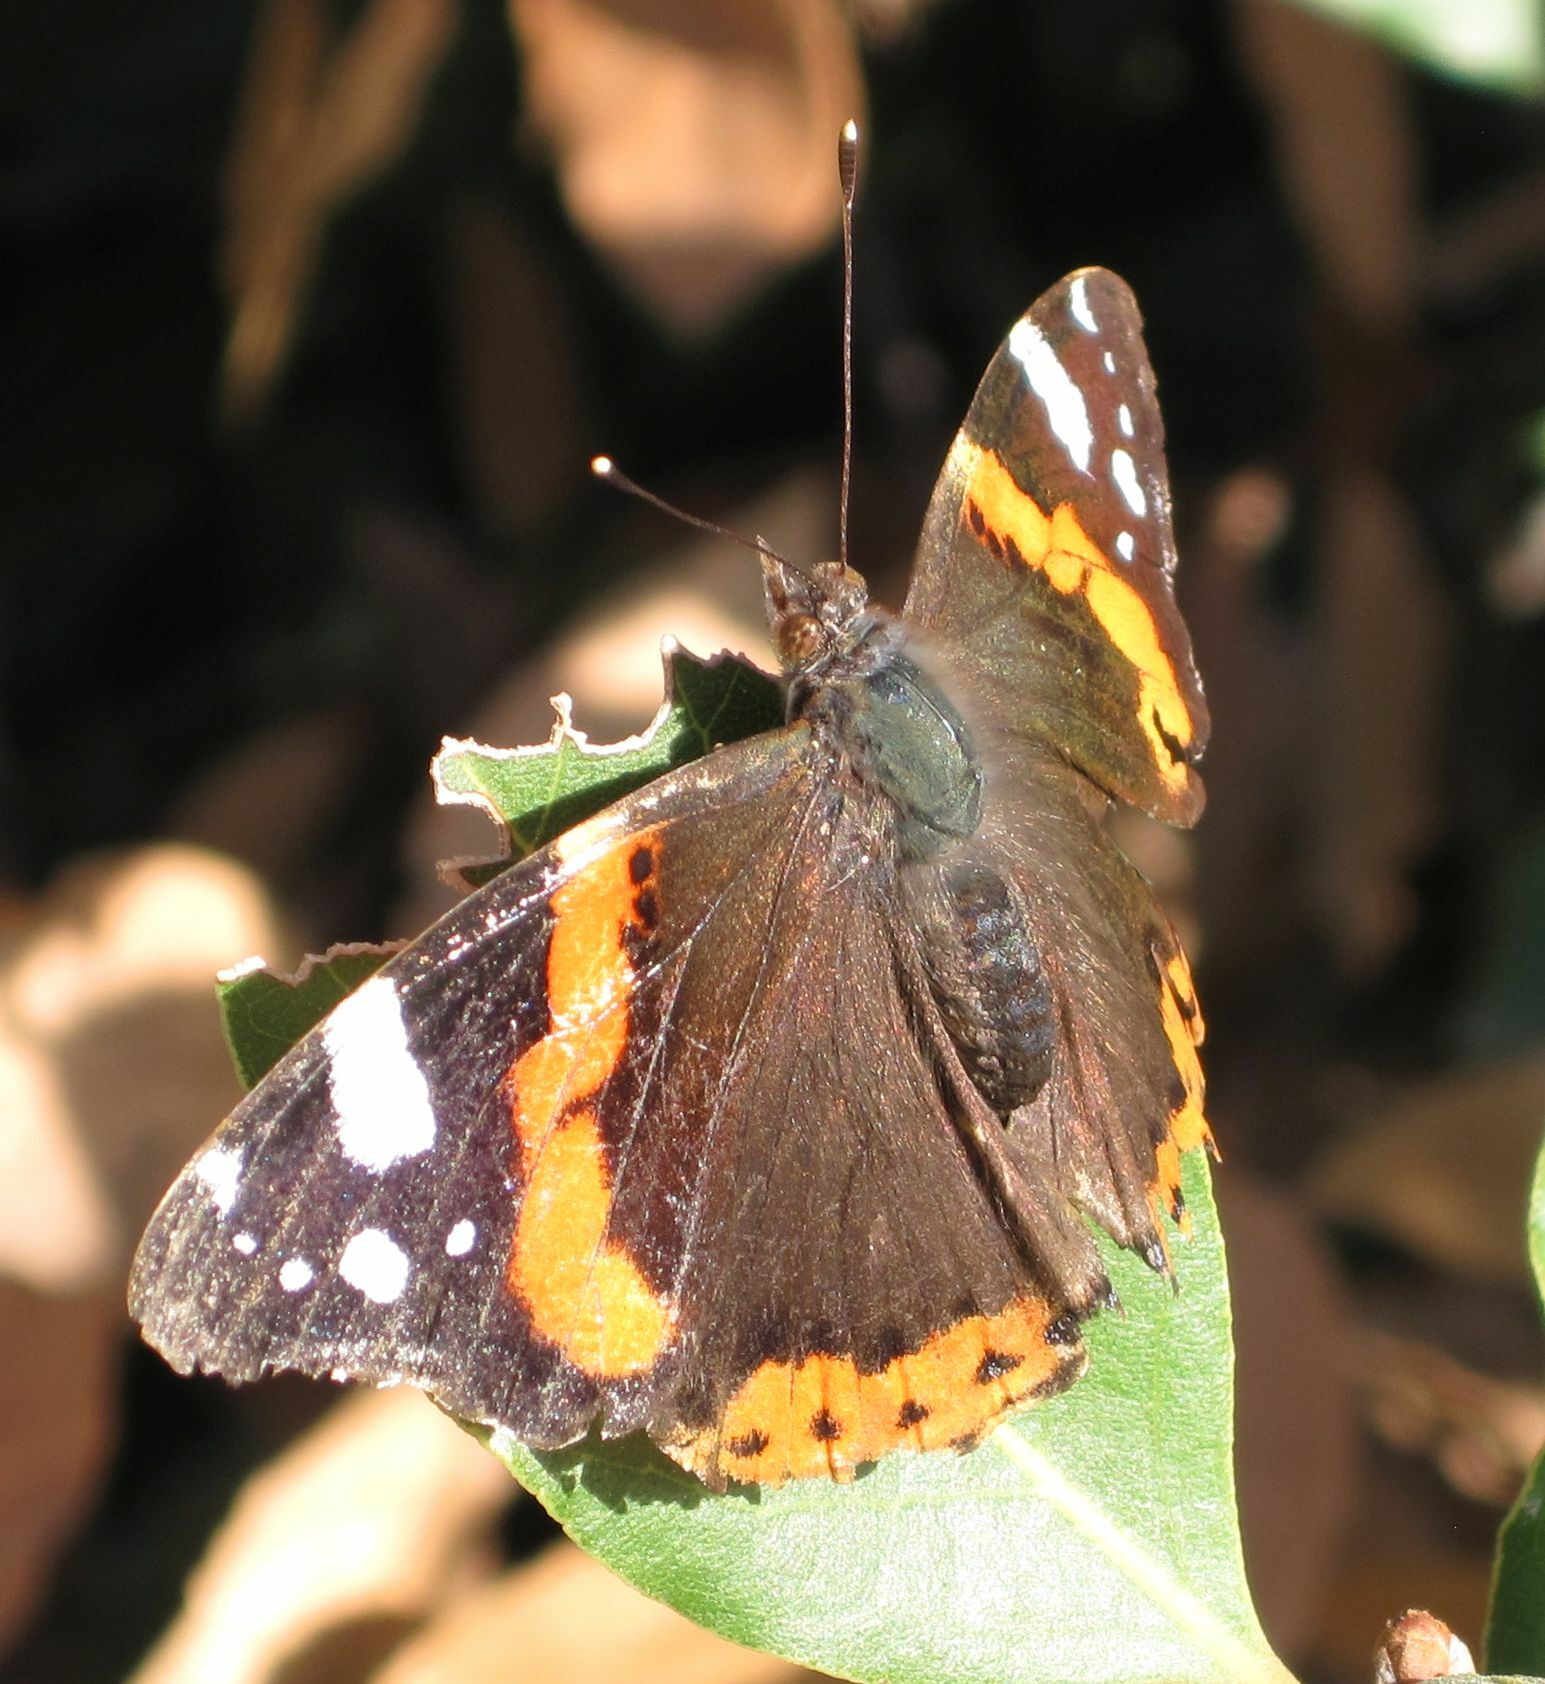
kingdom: Animalia
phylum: Arthropoda
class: Insecta
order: Lepidoptera
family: Nymphalidae
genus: Vanessa
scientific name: Vanessa atalanta
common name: Red admiral
